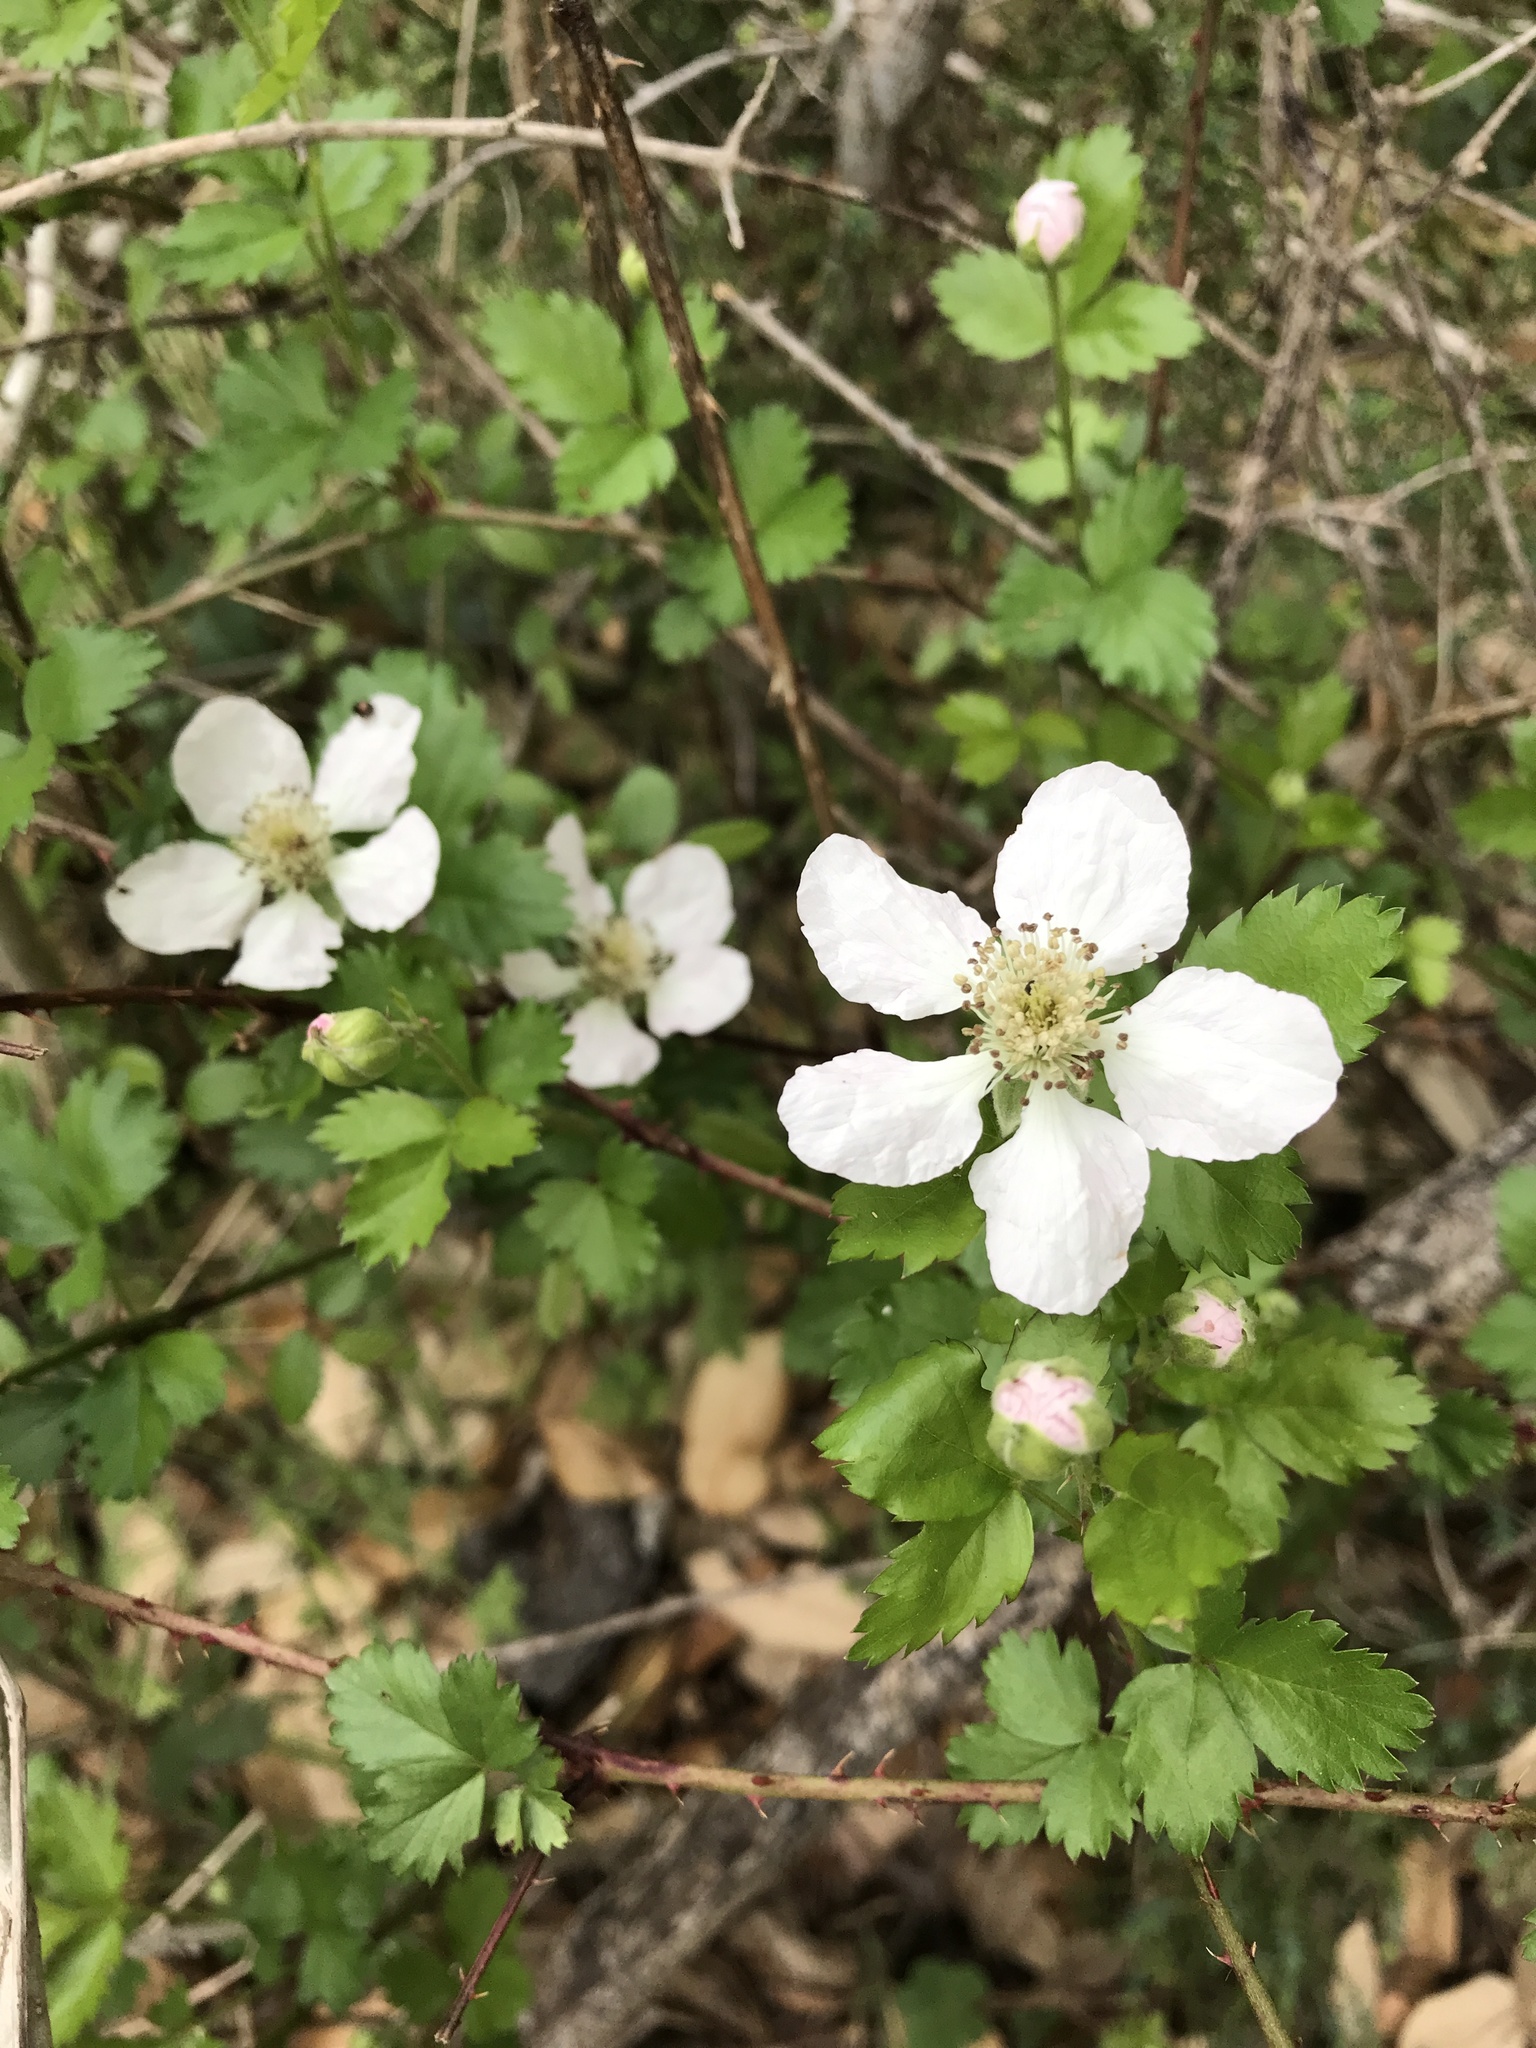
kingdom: Plantae
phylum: Tracheophyta
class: Magnoliopsida
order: Rosales
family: Rosaceae
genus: Rubus
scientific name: Rubus trivialis
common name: Southern dewberry
